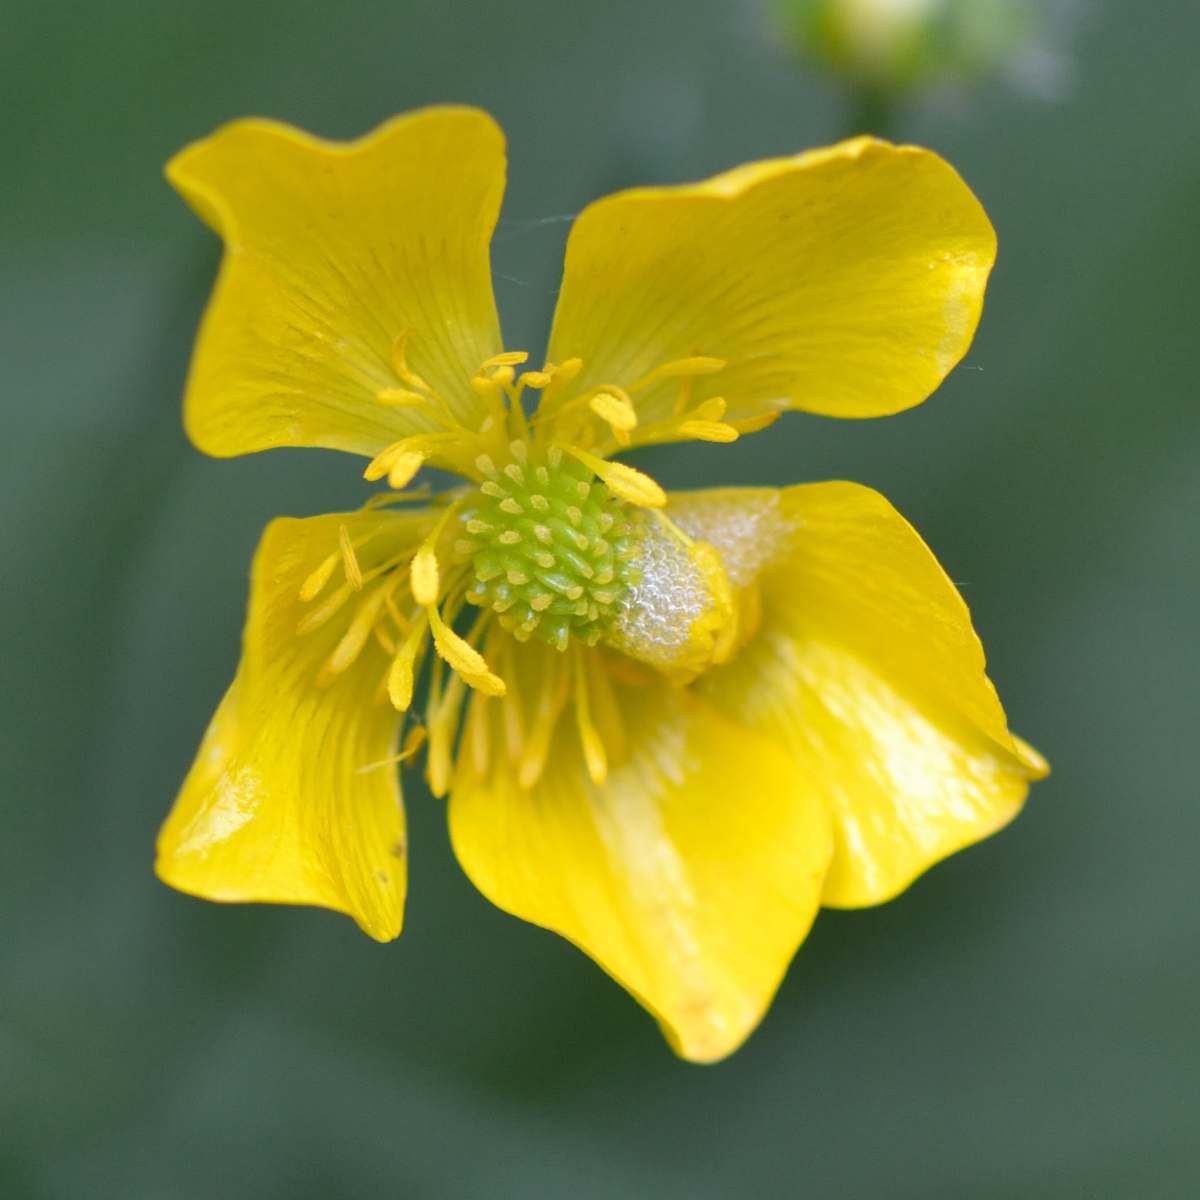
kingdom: Plantae
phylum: Tracheophyta
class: Magnoliopsida
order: Ranunculales
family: Ranunculaceae
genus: Ranunculus
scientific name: Ranunculus polyanthemos
